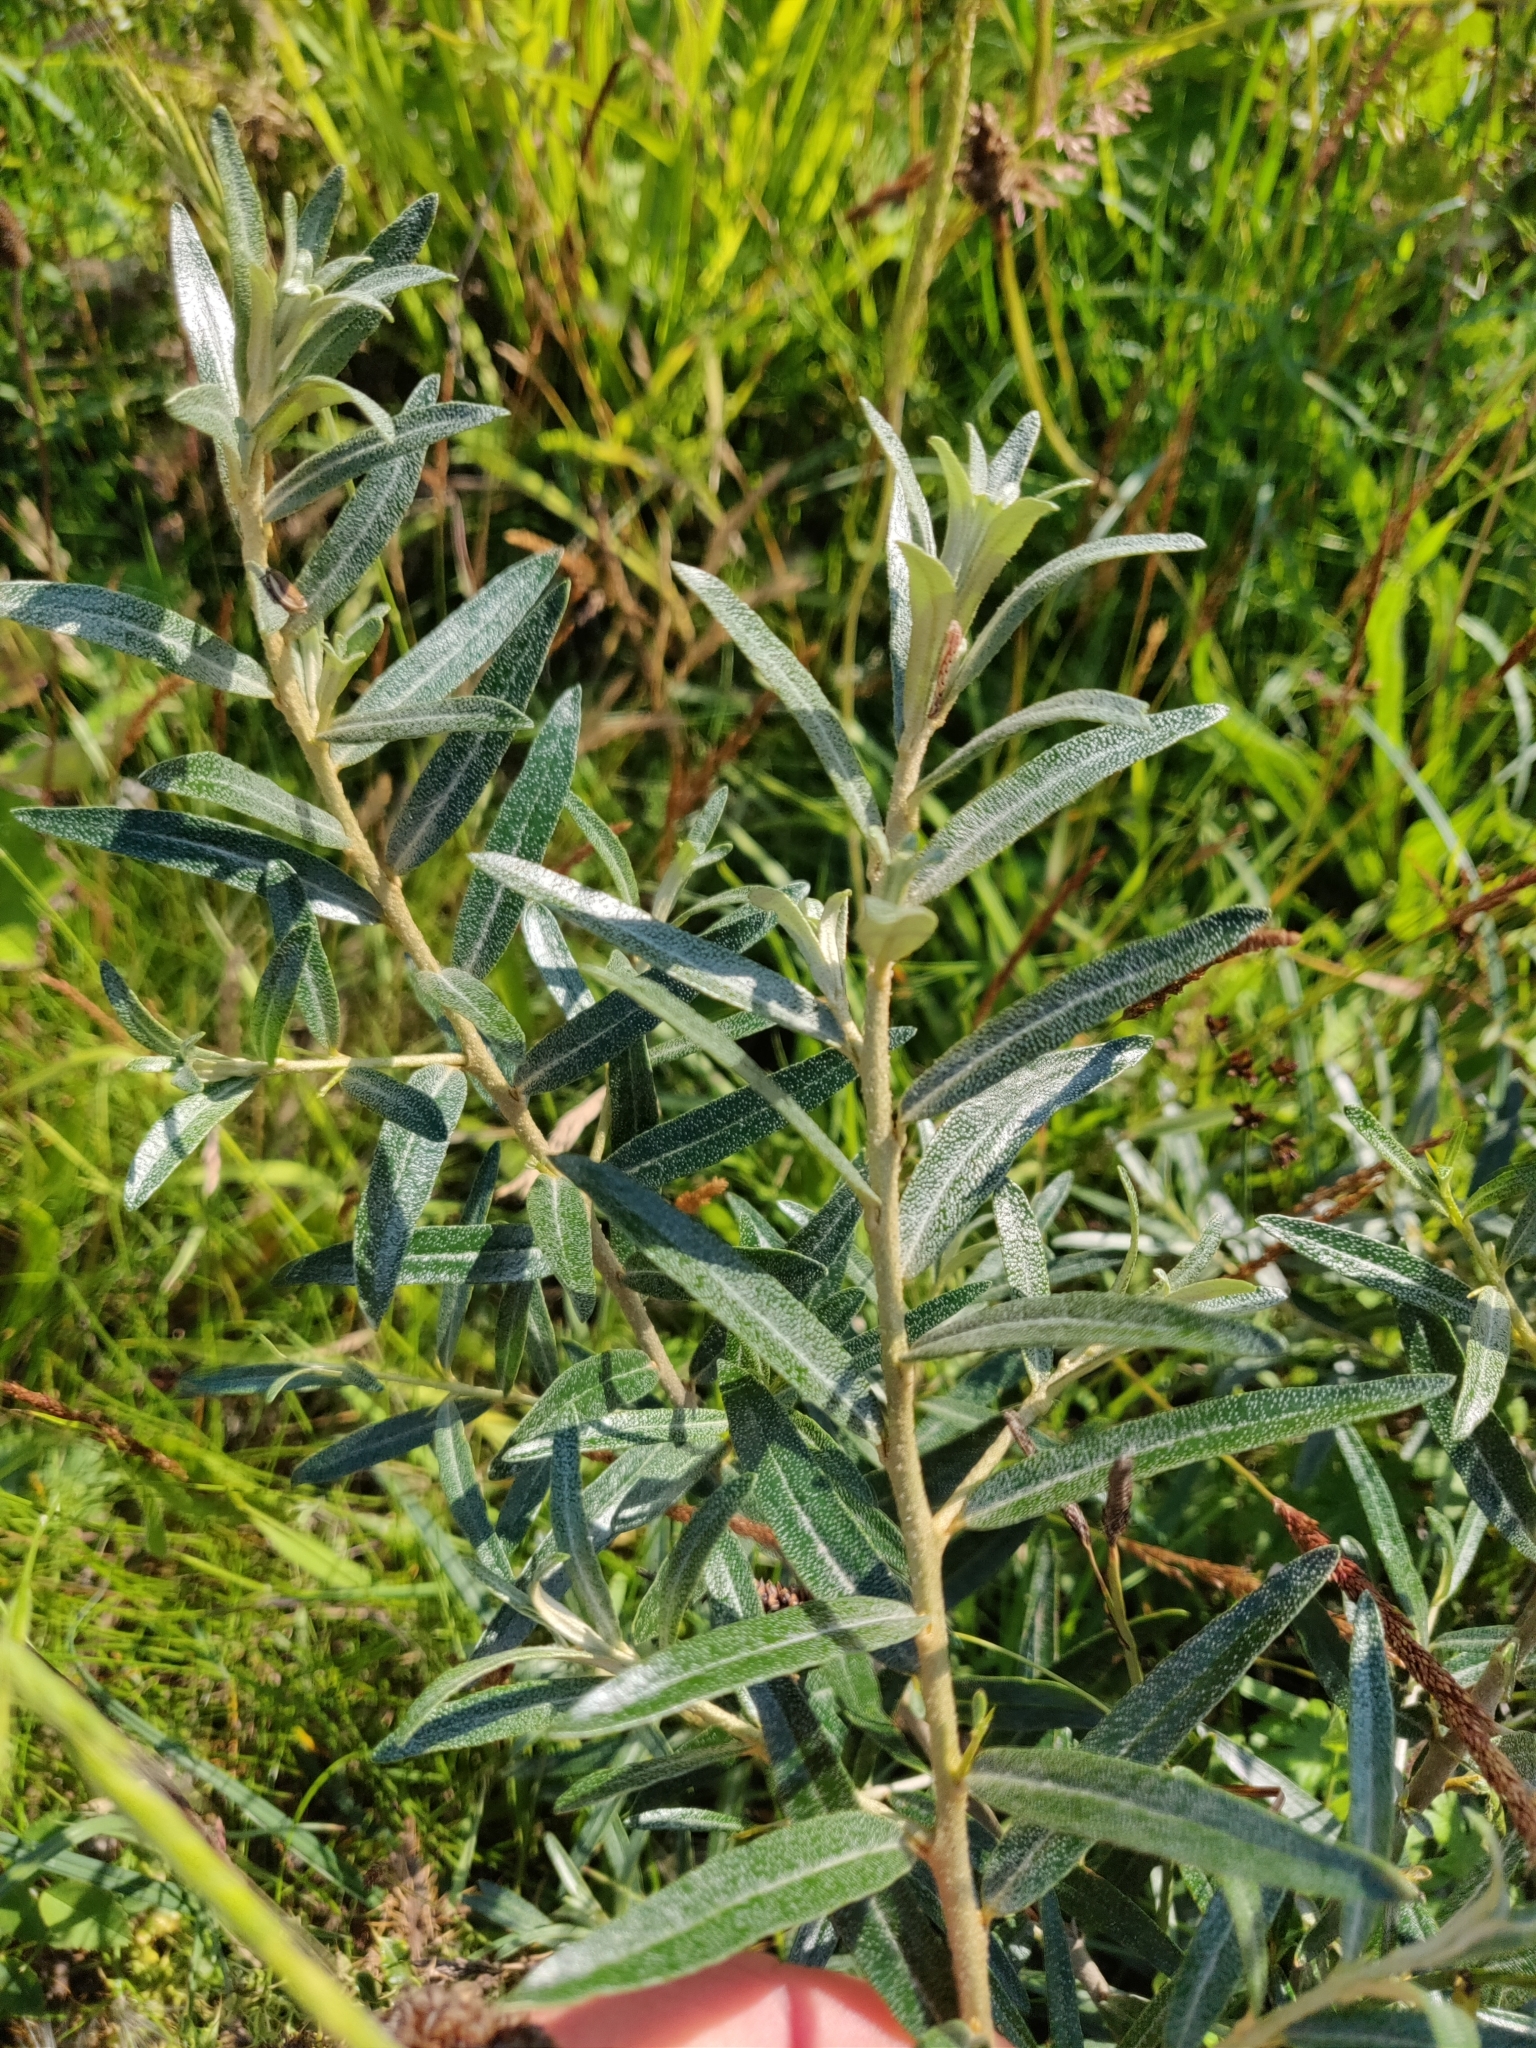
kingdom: Plantae
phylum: Tracheophyta
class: Magnoliopsida
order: Rosales
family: Elaeagnaceae
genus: Hippophae
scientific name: Hippophae rhamnoides
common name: Sea-buckthorn
